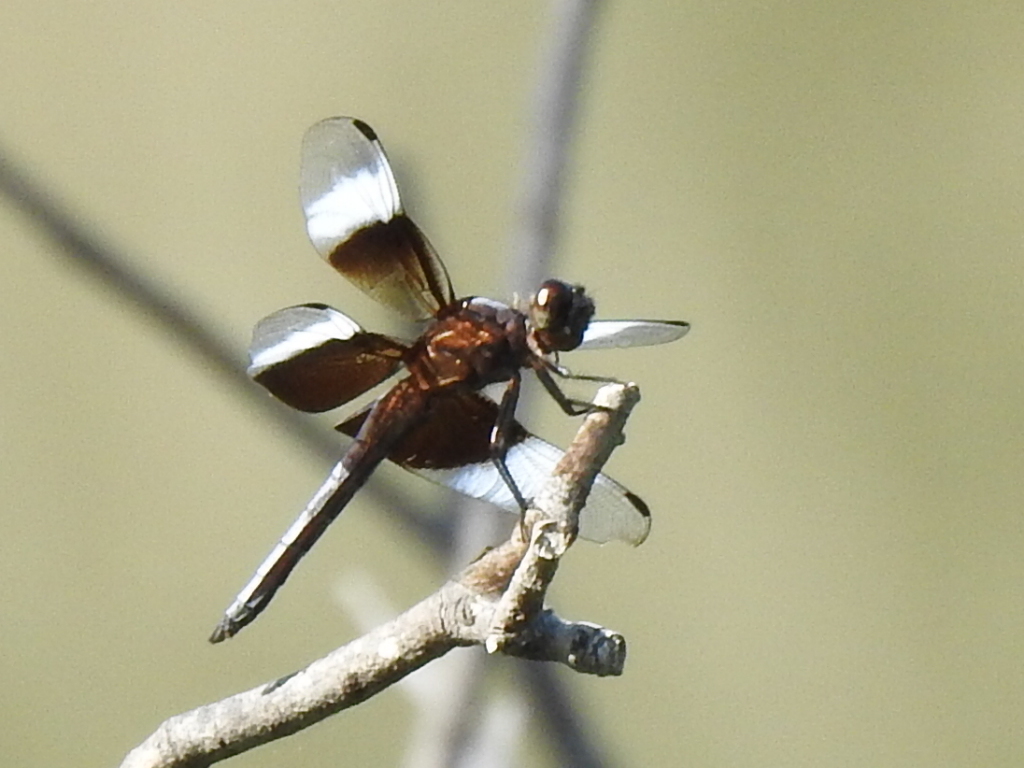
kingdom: Animalia
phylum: Arthropoda
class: Insecta
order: Odonata
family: Libellulidae
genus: Libellula
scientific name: Libellula luctuosa
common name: Widow skimmer
